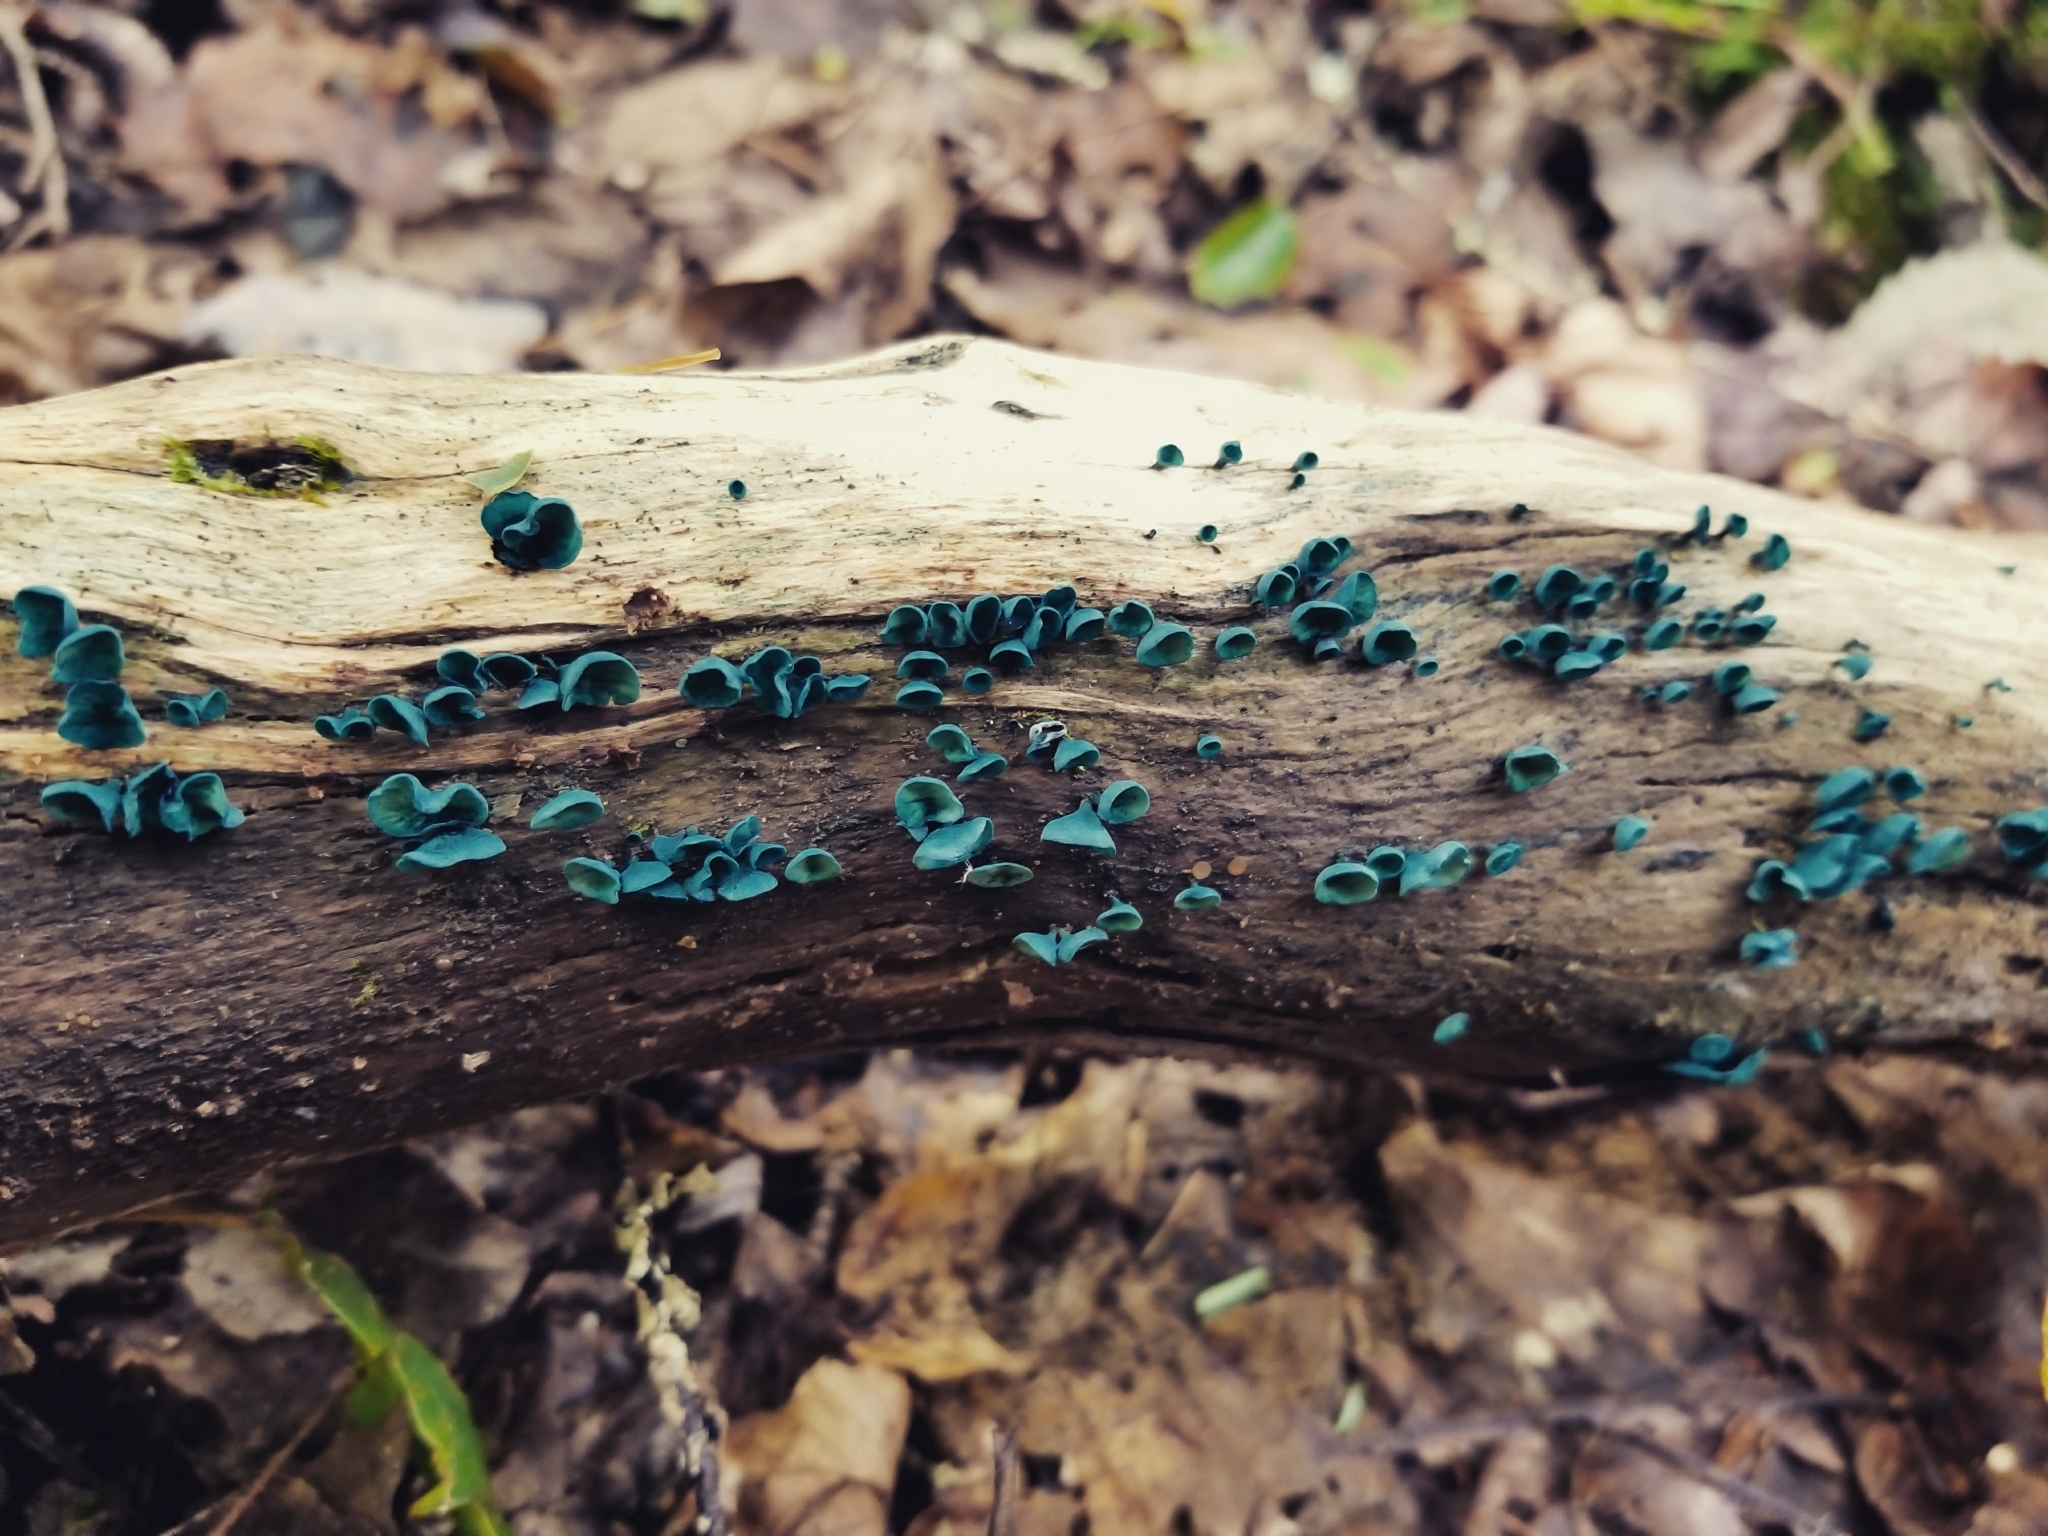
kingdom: Fungi
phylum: Ascomycota
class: Leotiomycetes
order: Helotiales
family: Chlorociboriaceae
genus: Chlorociboria
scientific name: Chlorociboria aeruginascens
